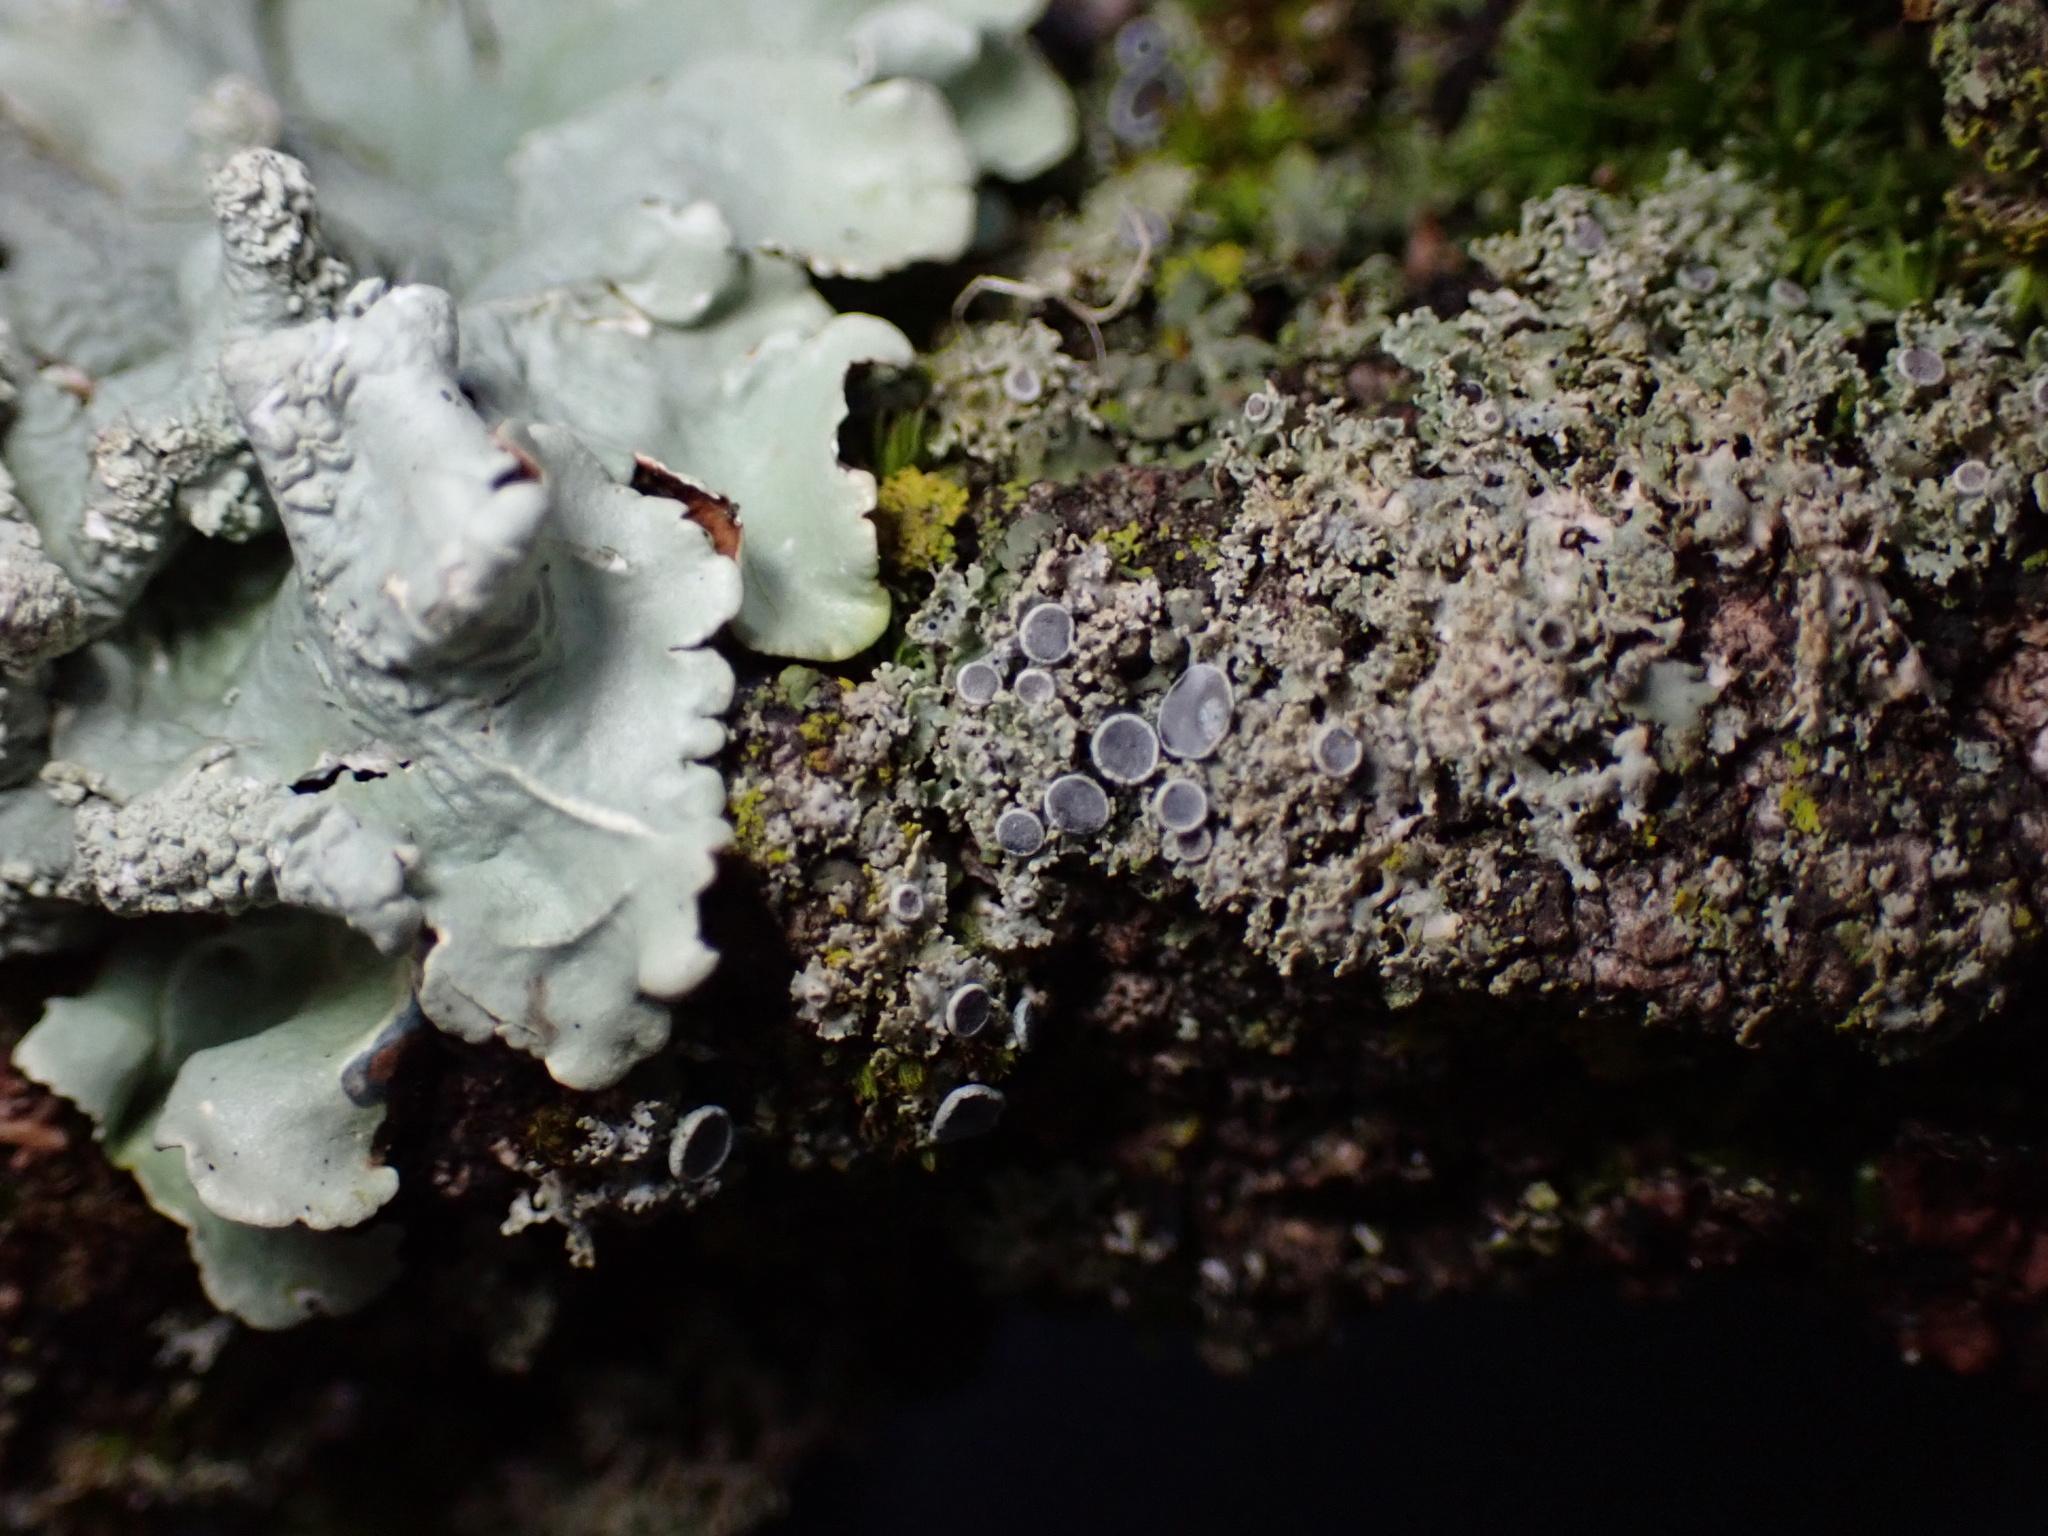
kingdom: Fungi
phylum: Ascomycota
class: Lecanoromycetes
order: Caliciales
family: Physciaceae
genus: Physcia
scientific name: Physcia millegrana
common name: Rosette lichen
